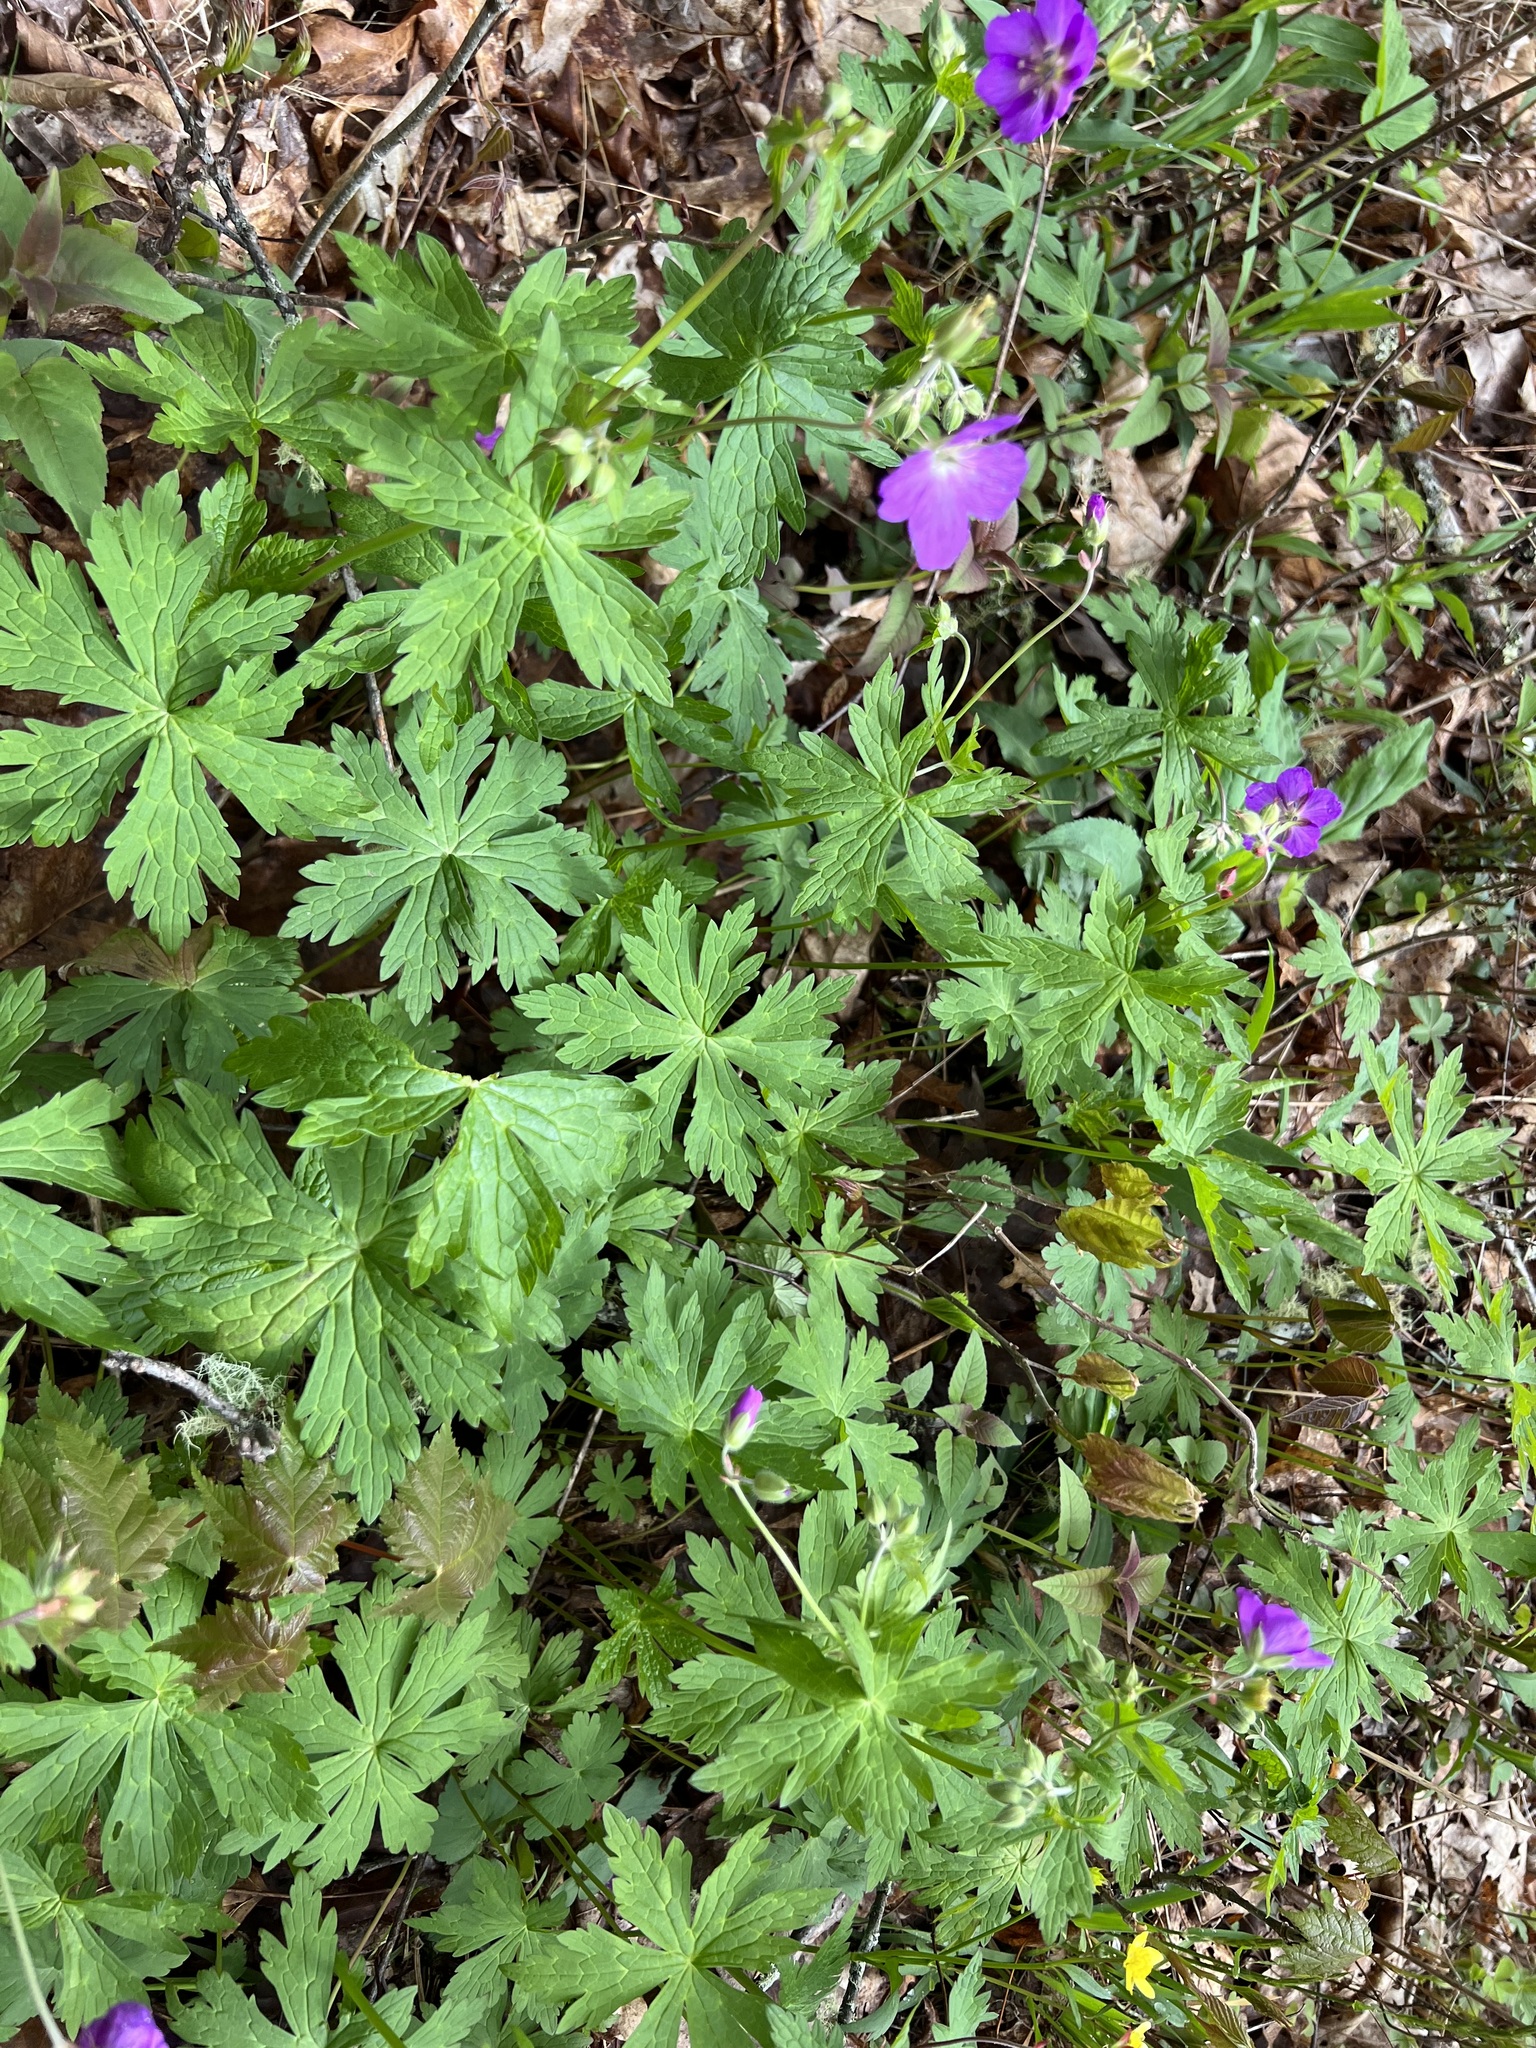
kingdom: Plantae
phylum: Tracheophyta
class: Magnoliopsida
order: Geraniales
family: Geraniaceae
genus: Geranium
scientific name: Geranium maculatum
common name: Spotted geranium
